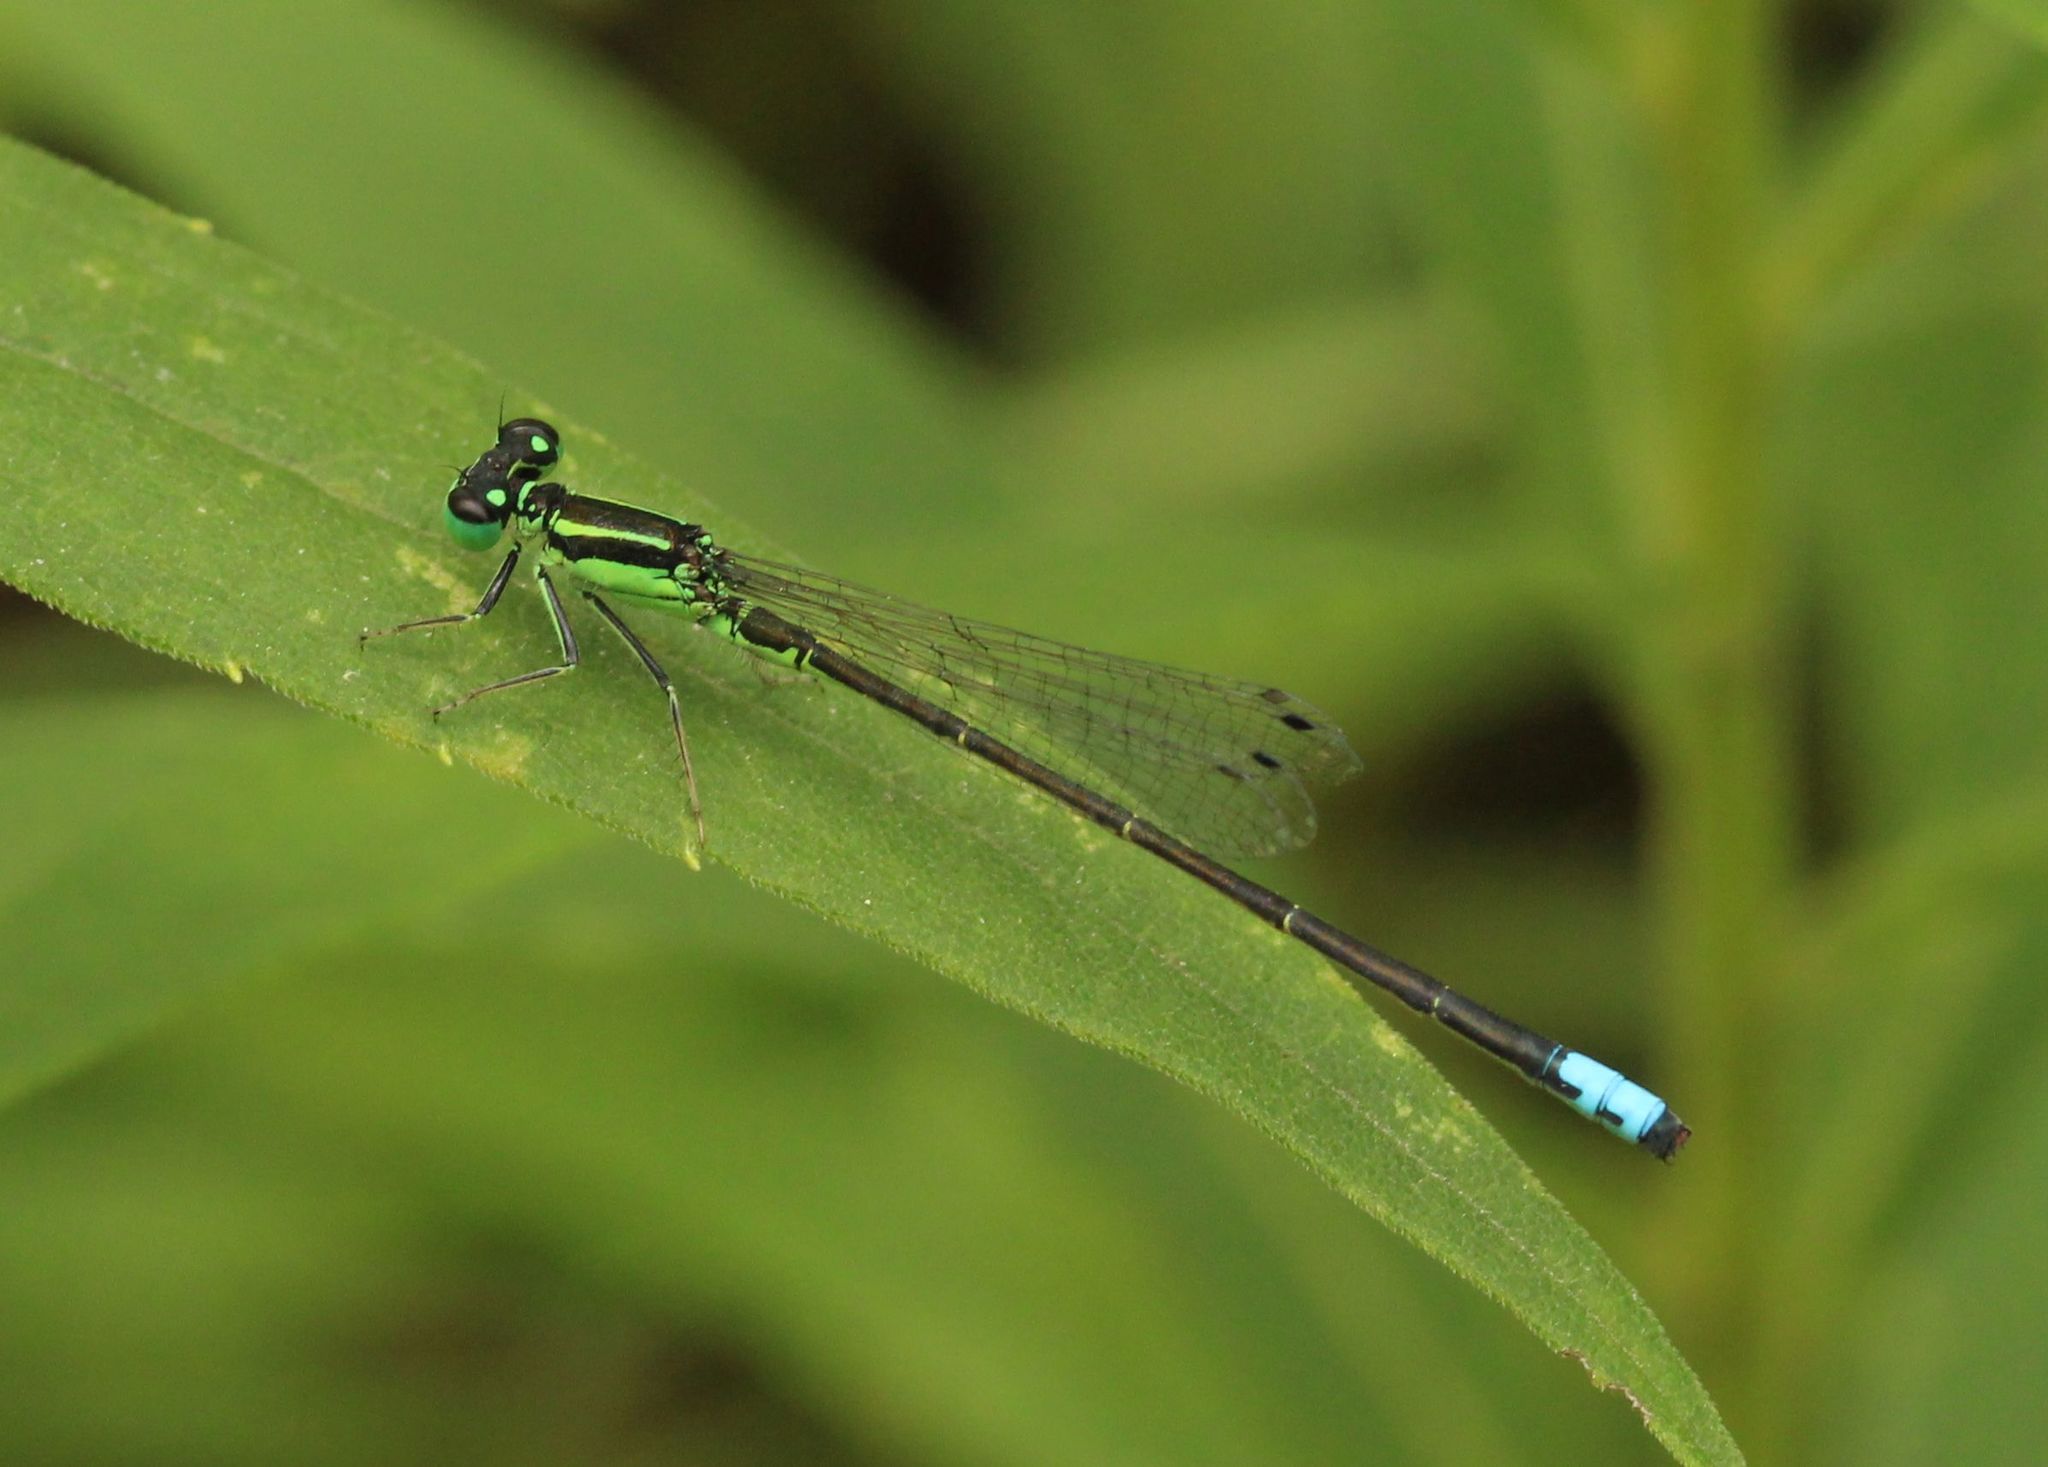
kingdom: Animalia
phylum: Arthropoda
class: Insecta
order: Odonata
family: Coenagrionidae
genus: Ischnura
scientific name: Ischnura verticalis
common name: Eastern forktail
